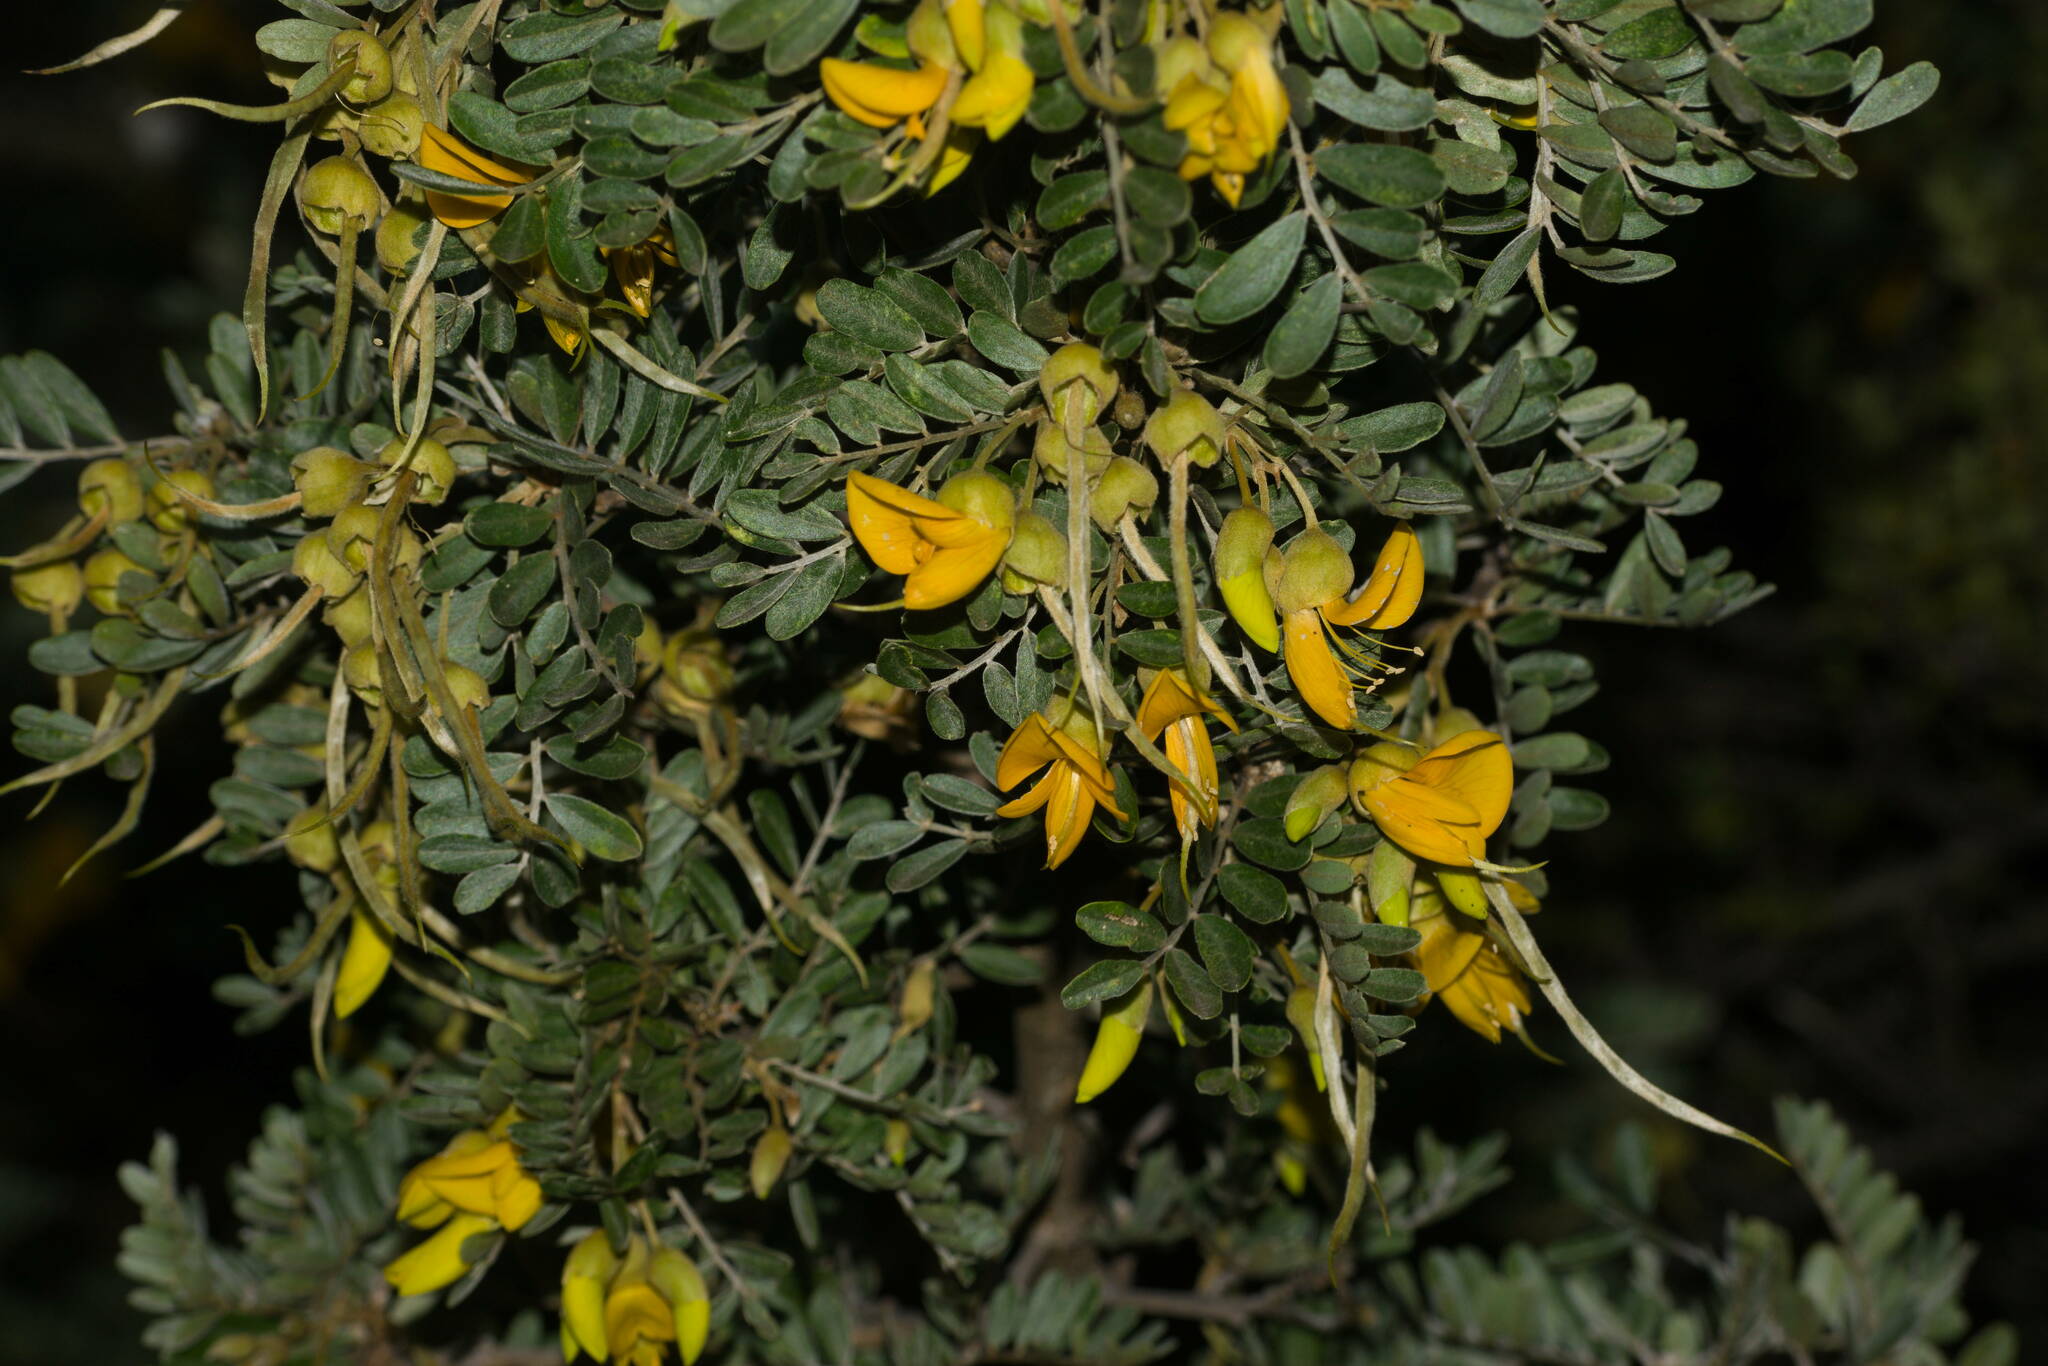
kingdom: Plantae
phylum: Tracheophyta
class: Magnoliopsida
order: Fabales
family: Fabaceae
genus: Sophora
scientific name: Sophora chrysophylla
